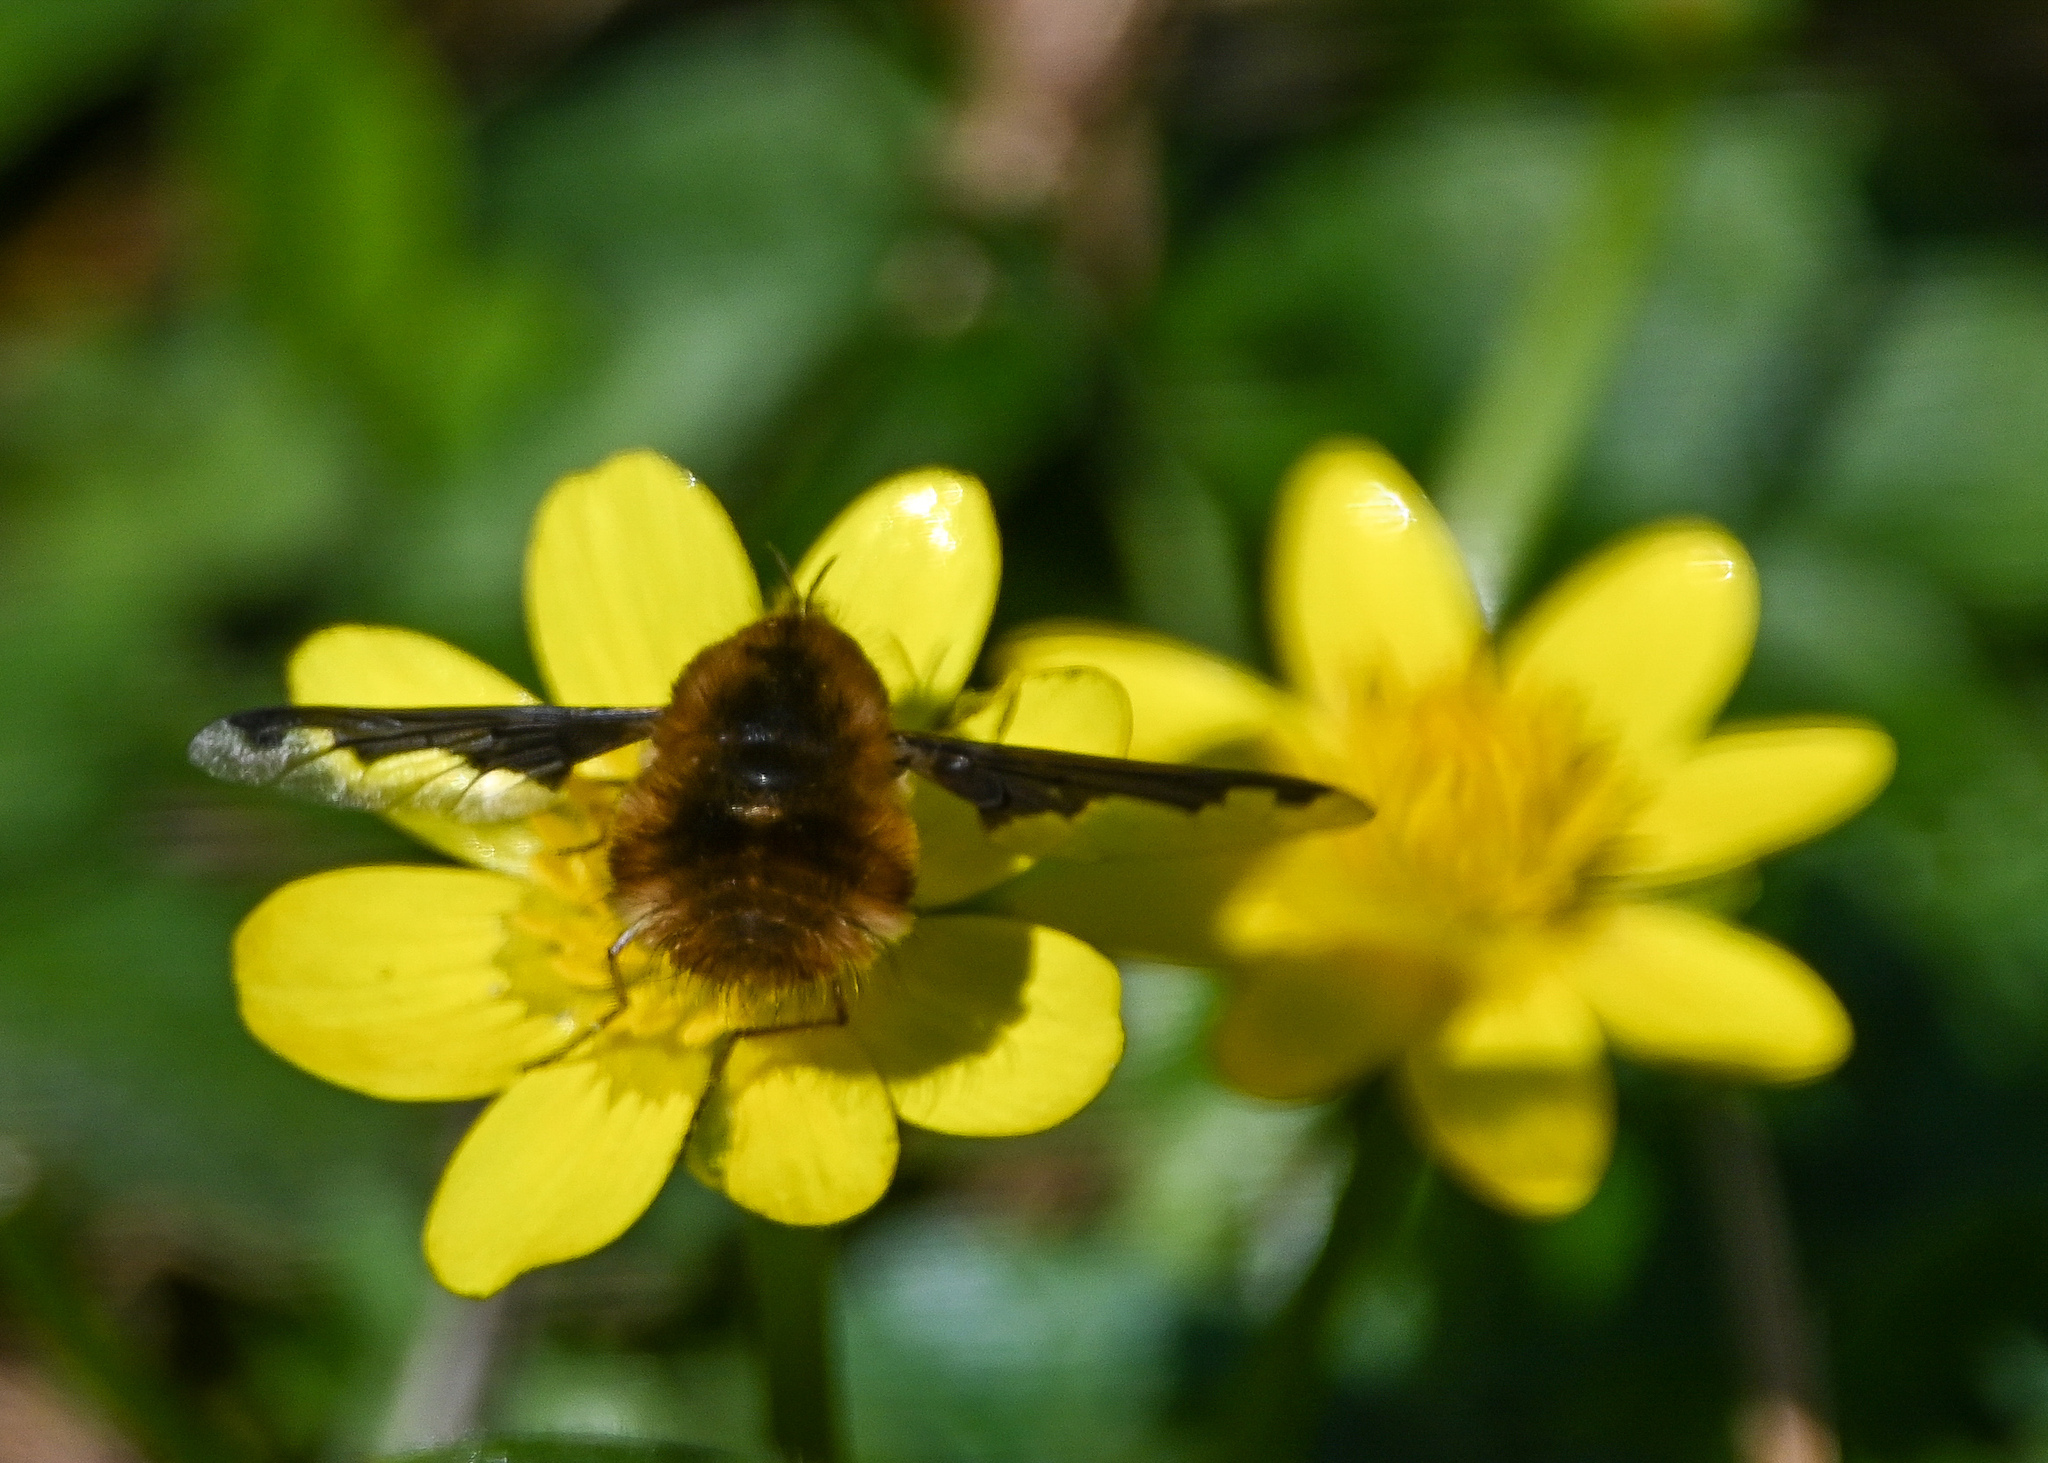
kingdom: Animalia
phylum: Arthropoda
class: Insecta
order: Diptera
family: Bombyliidae
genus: Bombylius
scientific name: Bombylius major
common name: Bee fly
